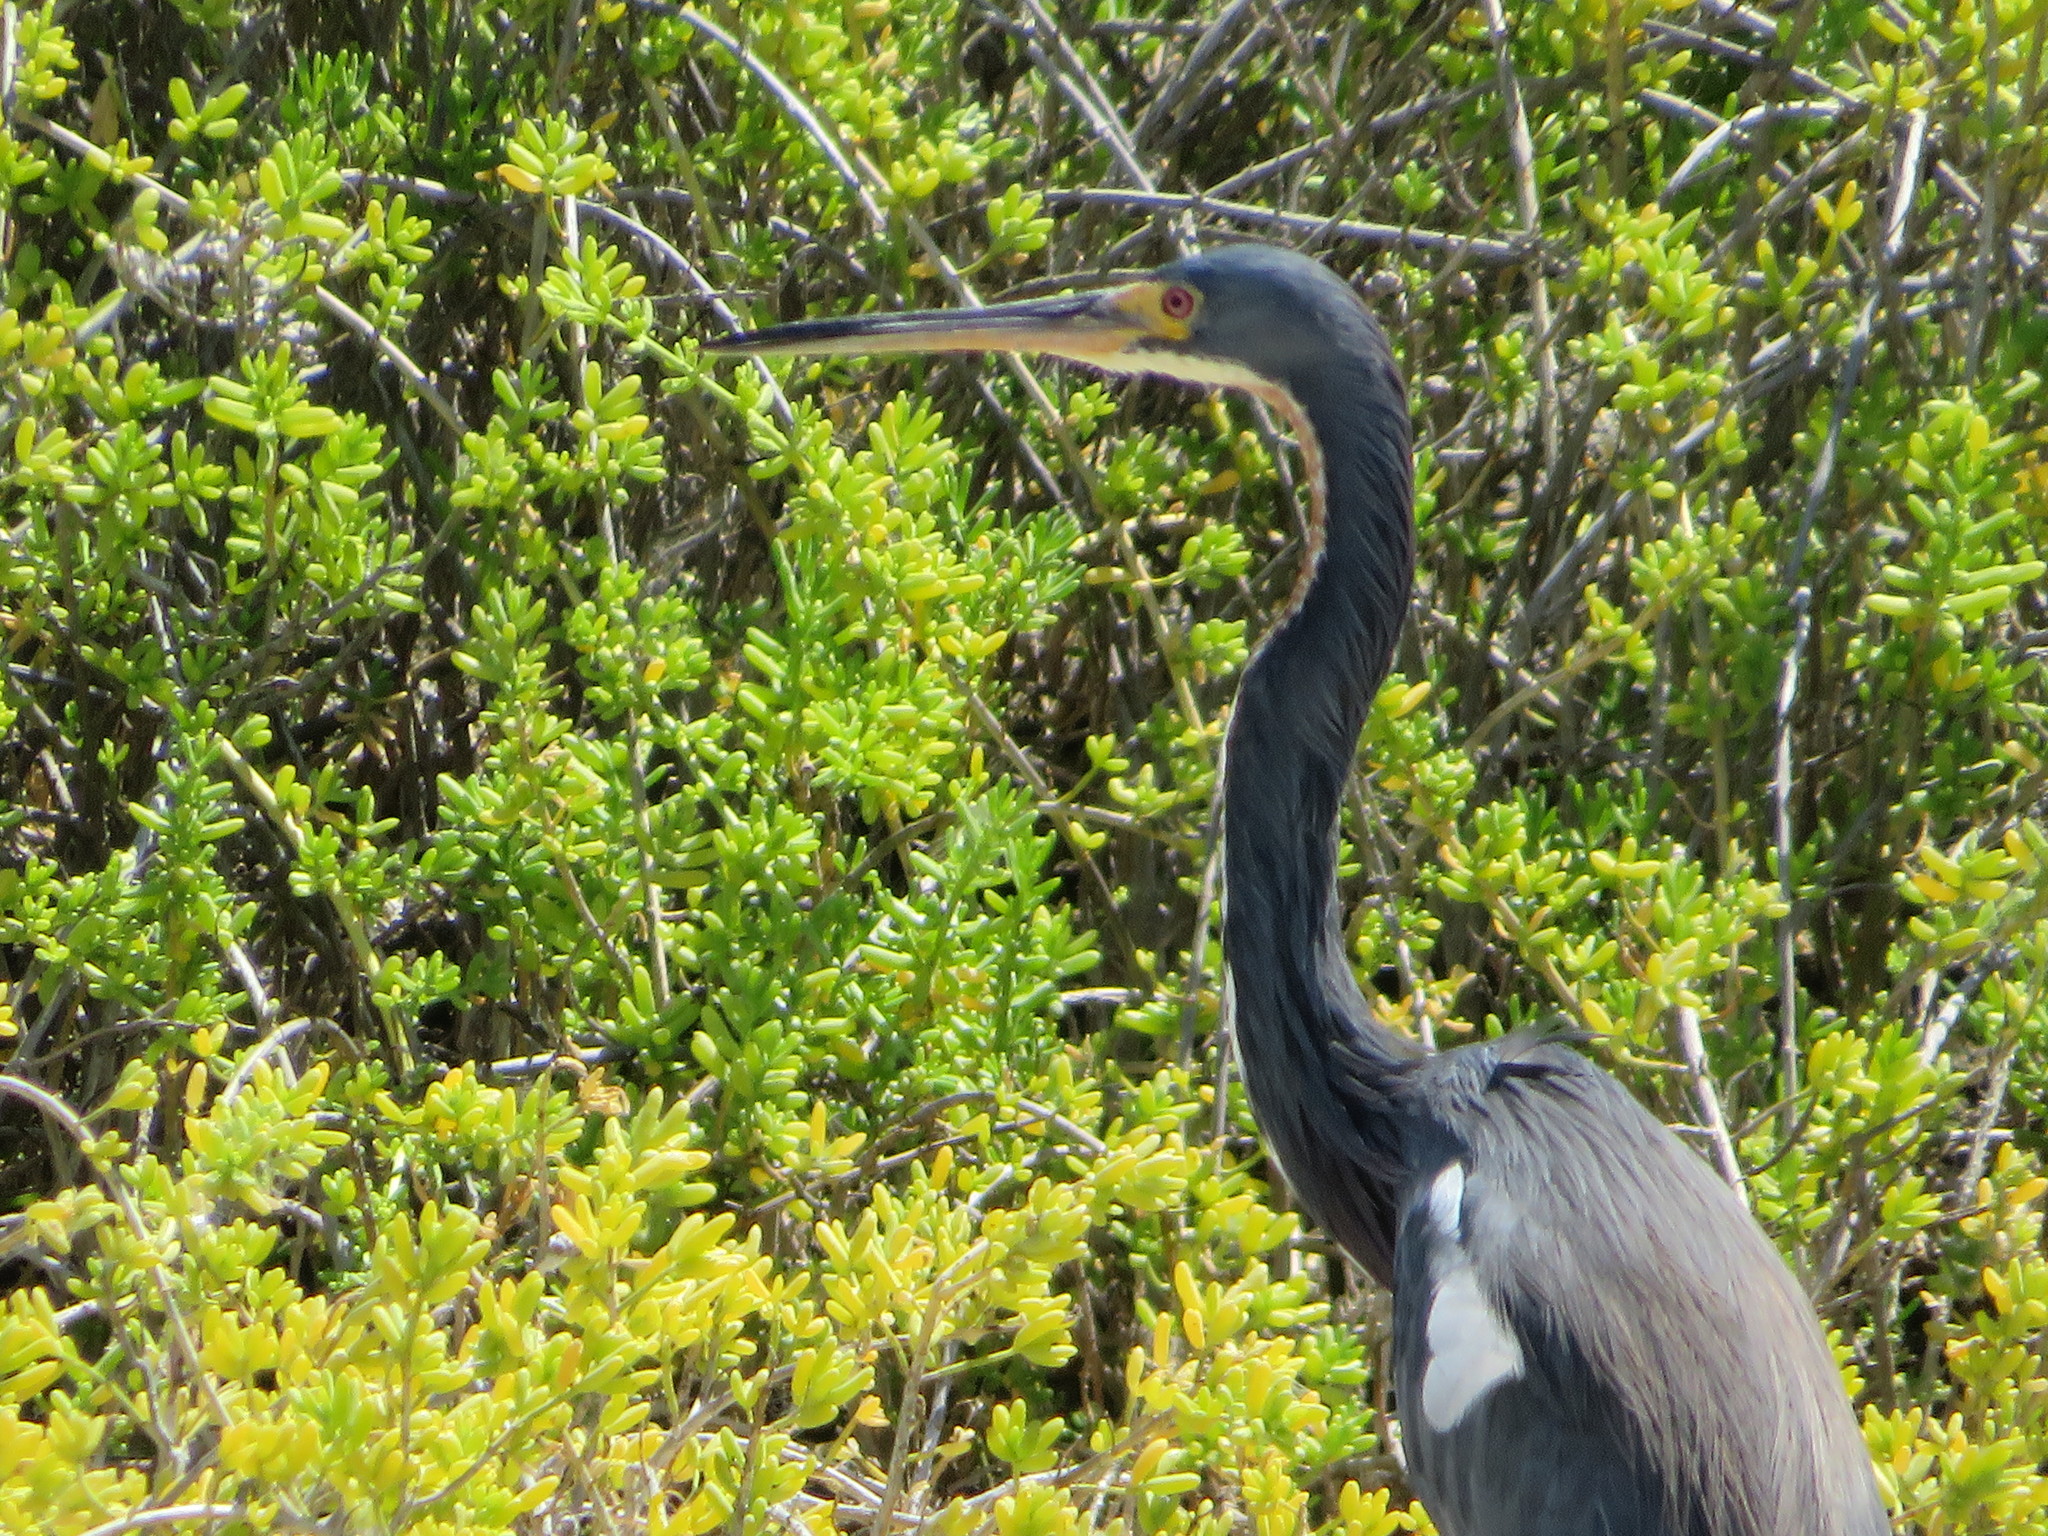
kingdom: Animalia
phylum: Chordata
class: Aves
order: Pelecaniformes
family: Ardeidae
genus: Egretta
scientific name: Egretta tricolor
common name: Tricolored heron
